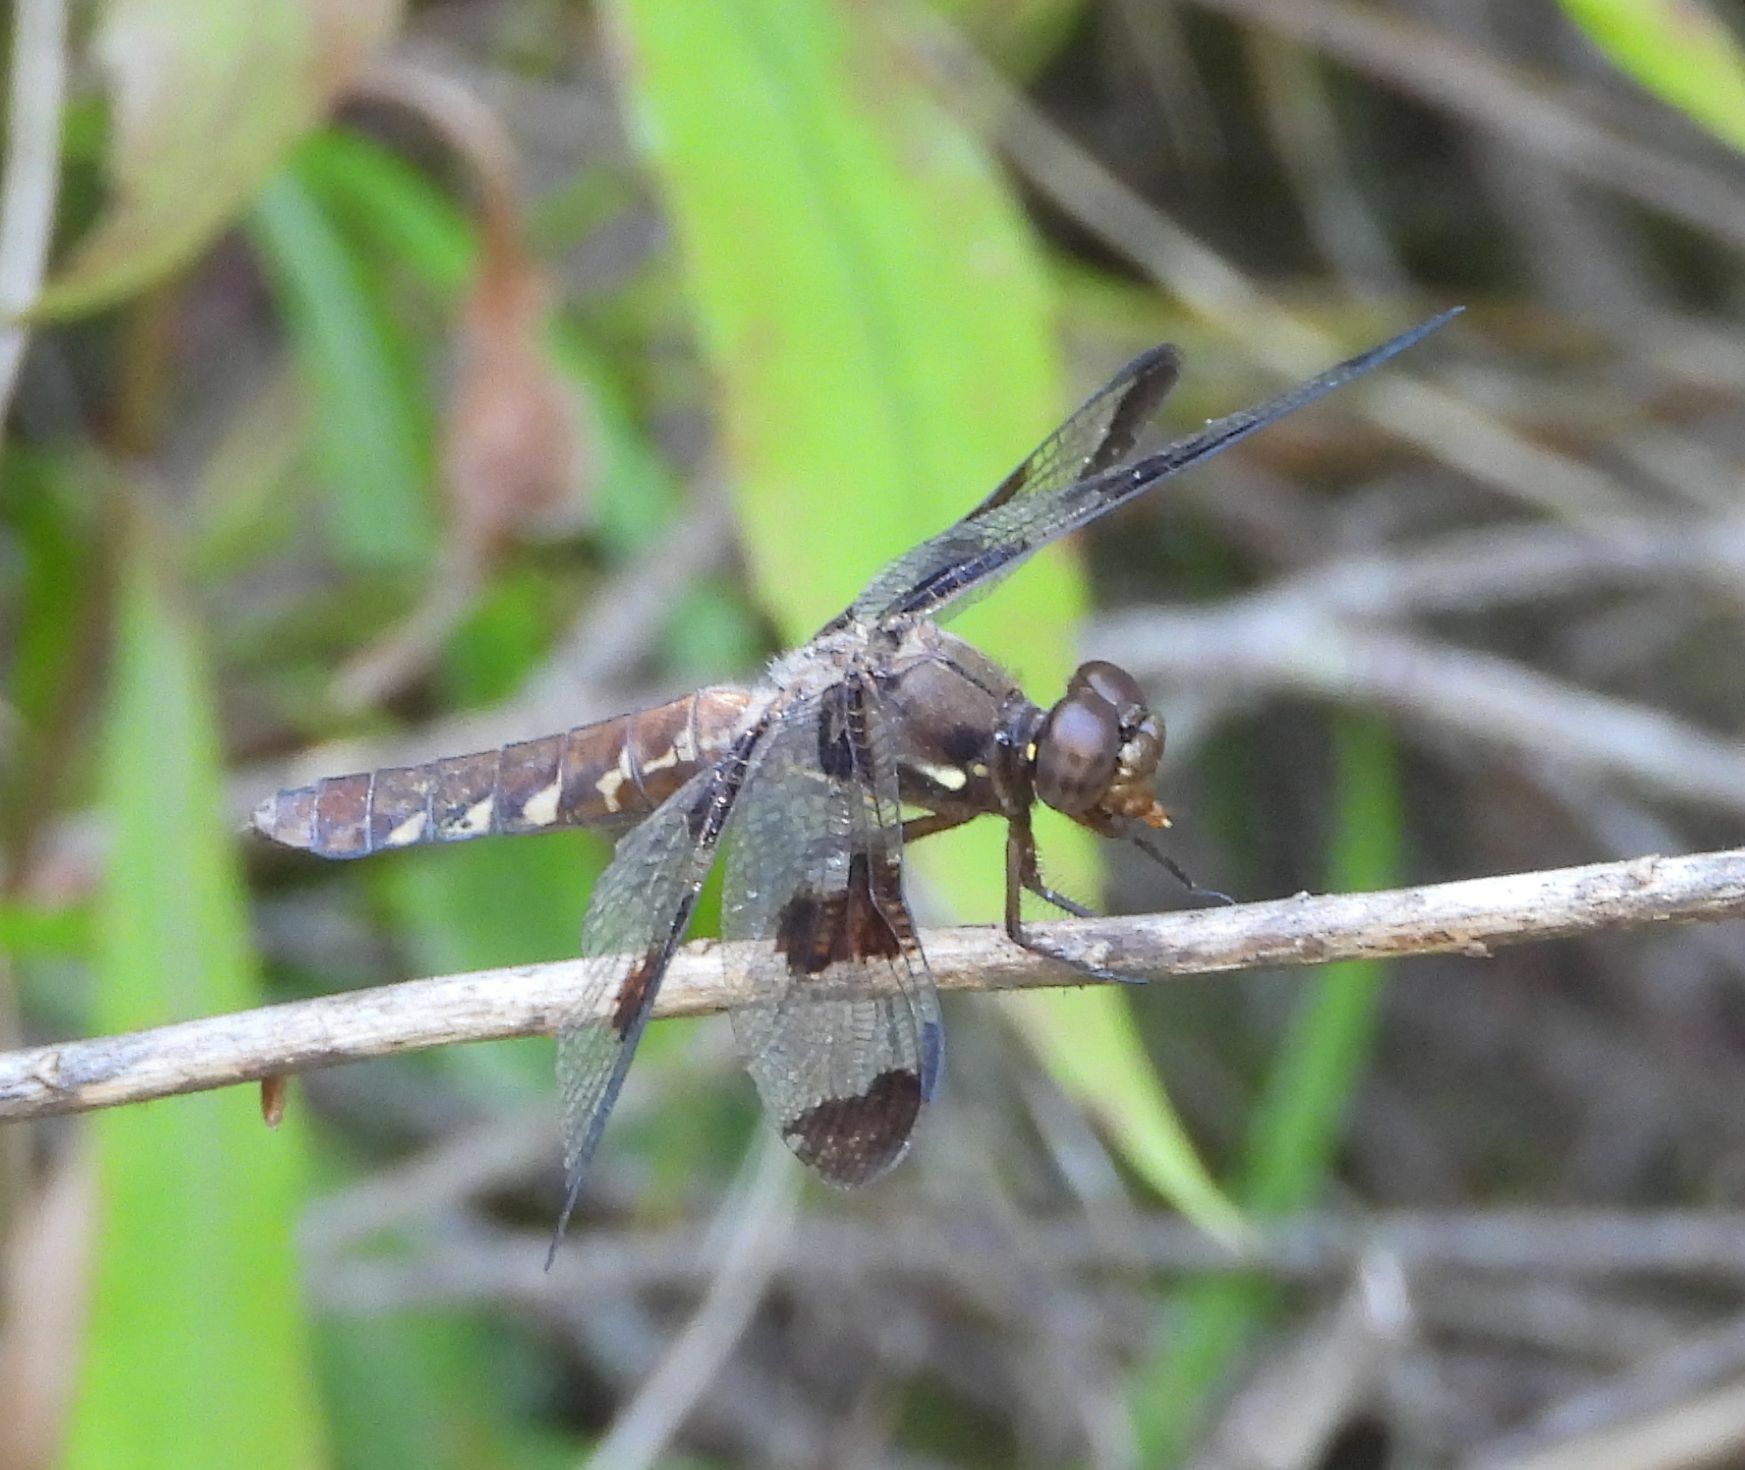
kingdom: Animalia
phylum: Arthropoda
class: Insecta
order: Odonata
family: Libellulidae
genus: Plathemis
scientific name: Plathemis lydia
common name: Common whitetail
